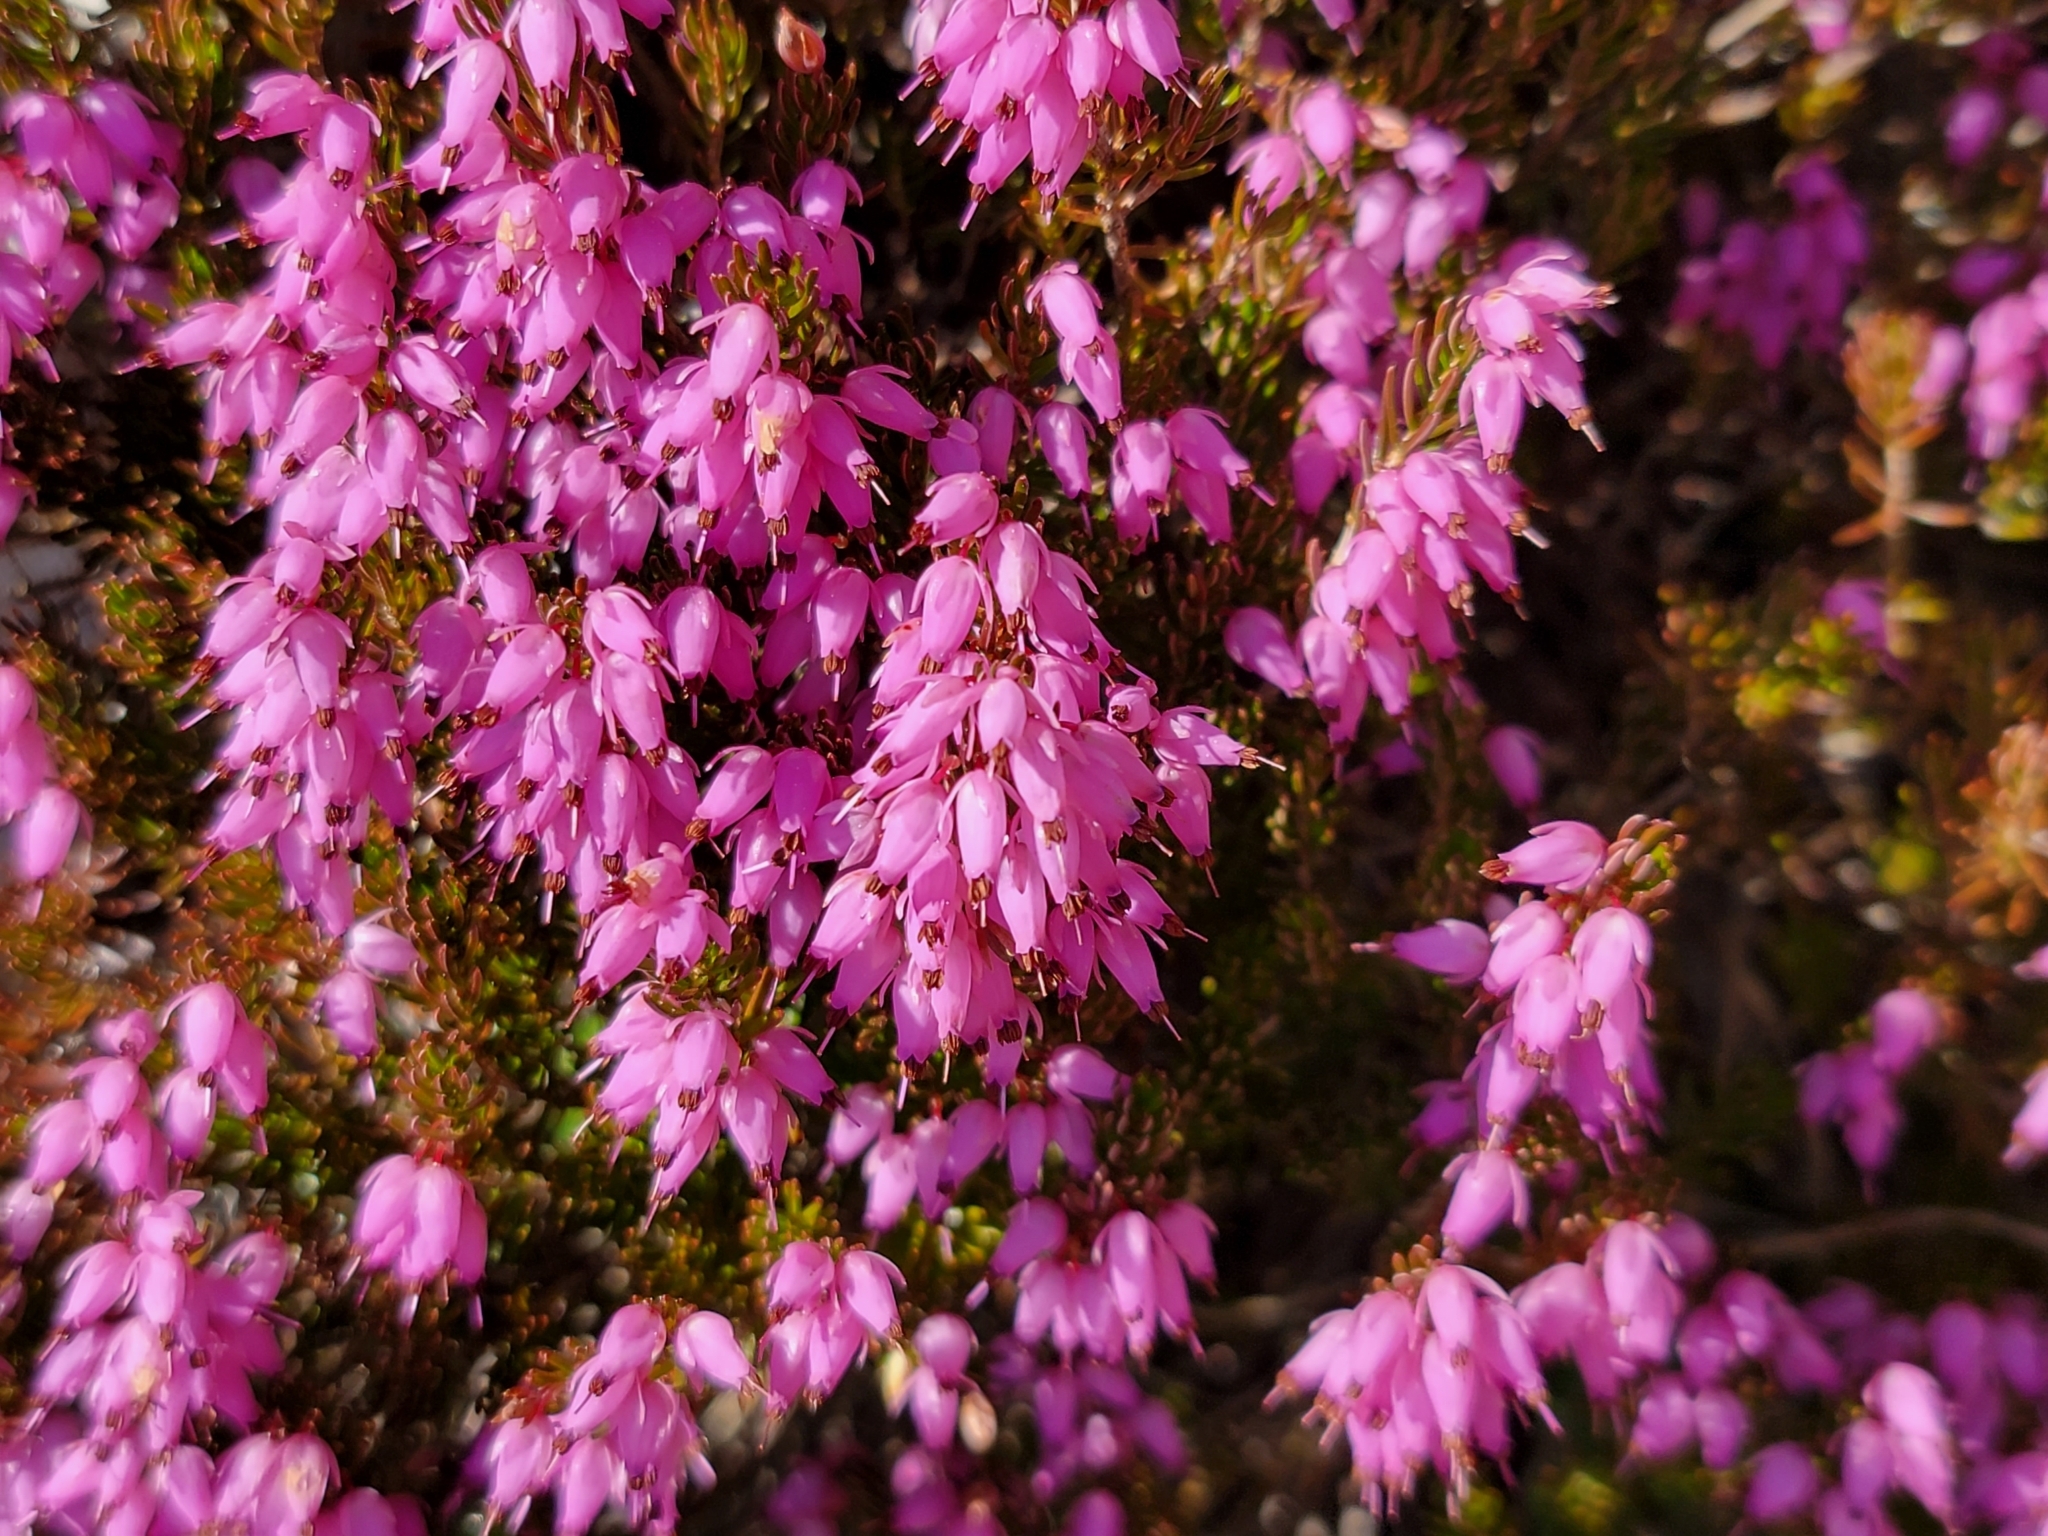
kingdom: Plantae
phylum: Tracheophyta
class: Magnoliopsida
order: Ericales
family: Ericaceae
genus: Erica
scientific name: Erica carnea
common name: Winter heath
